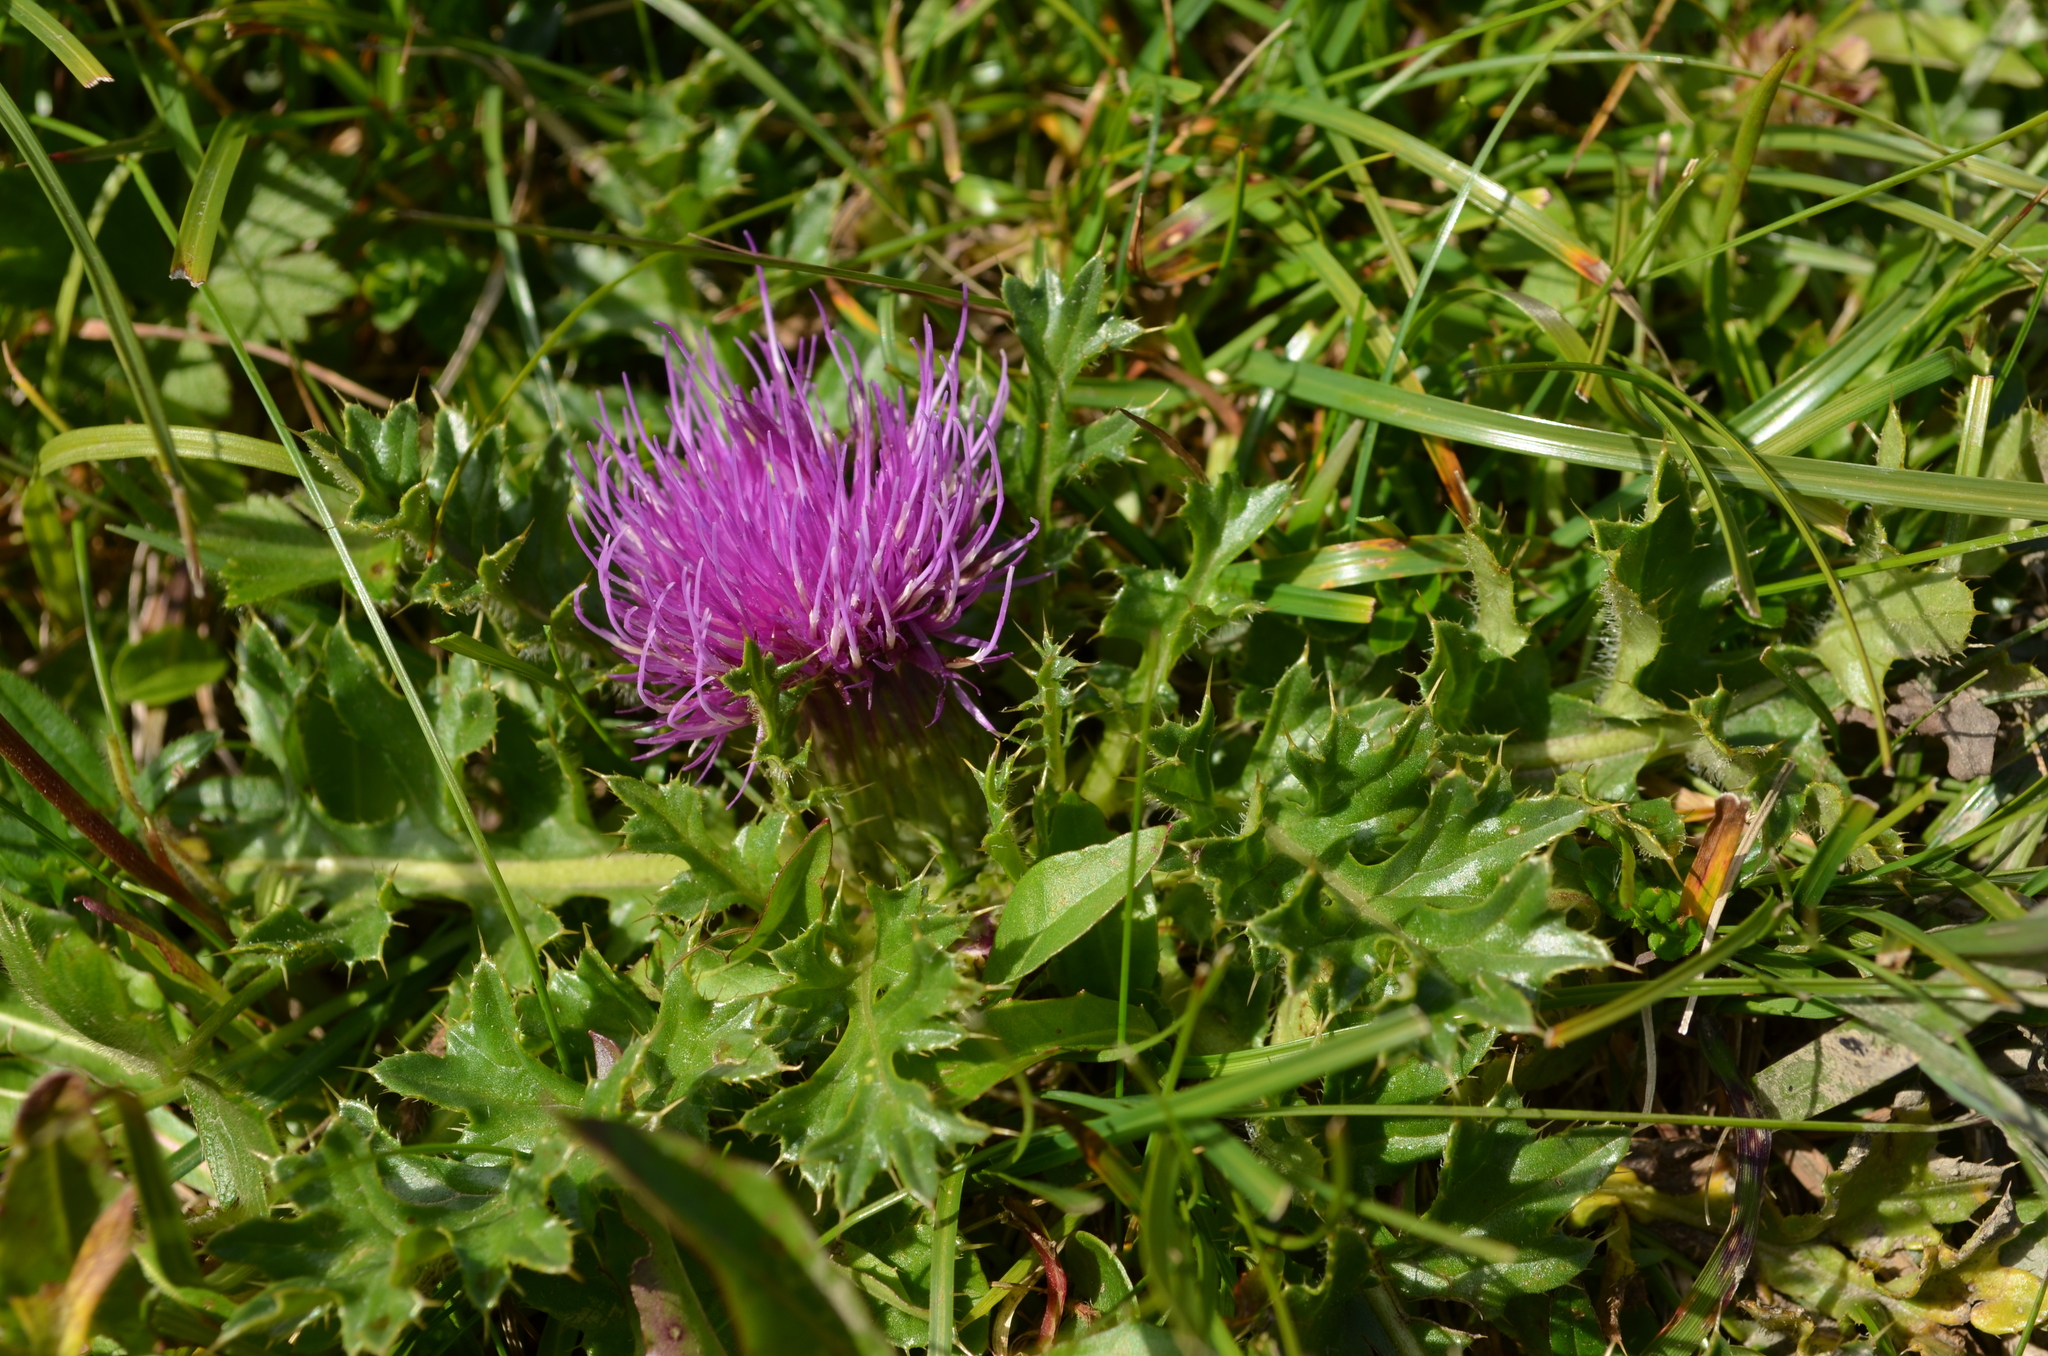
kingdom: Plantae
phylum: Tracheophyta
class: Magnoliopsida
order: Asterales
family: Asteraceae
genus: Cirsium
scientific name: Cirsium acaulon
